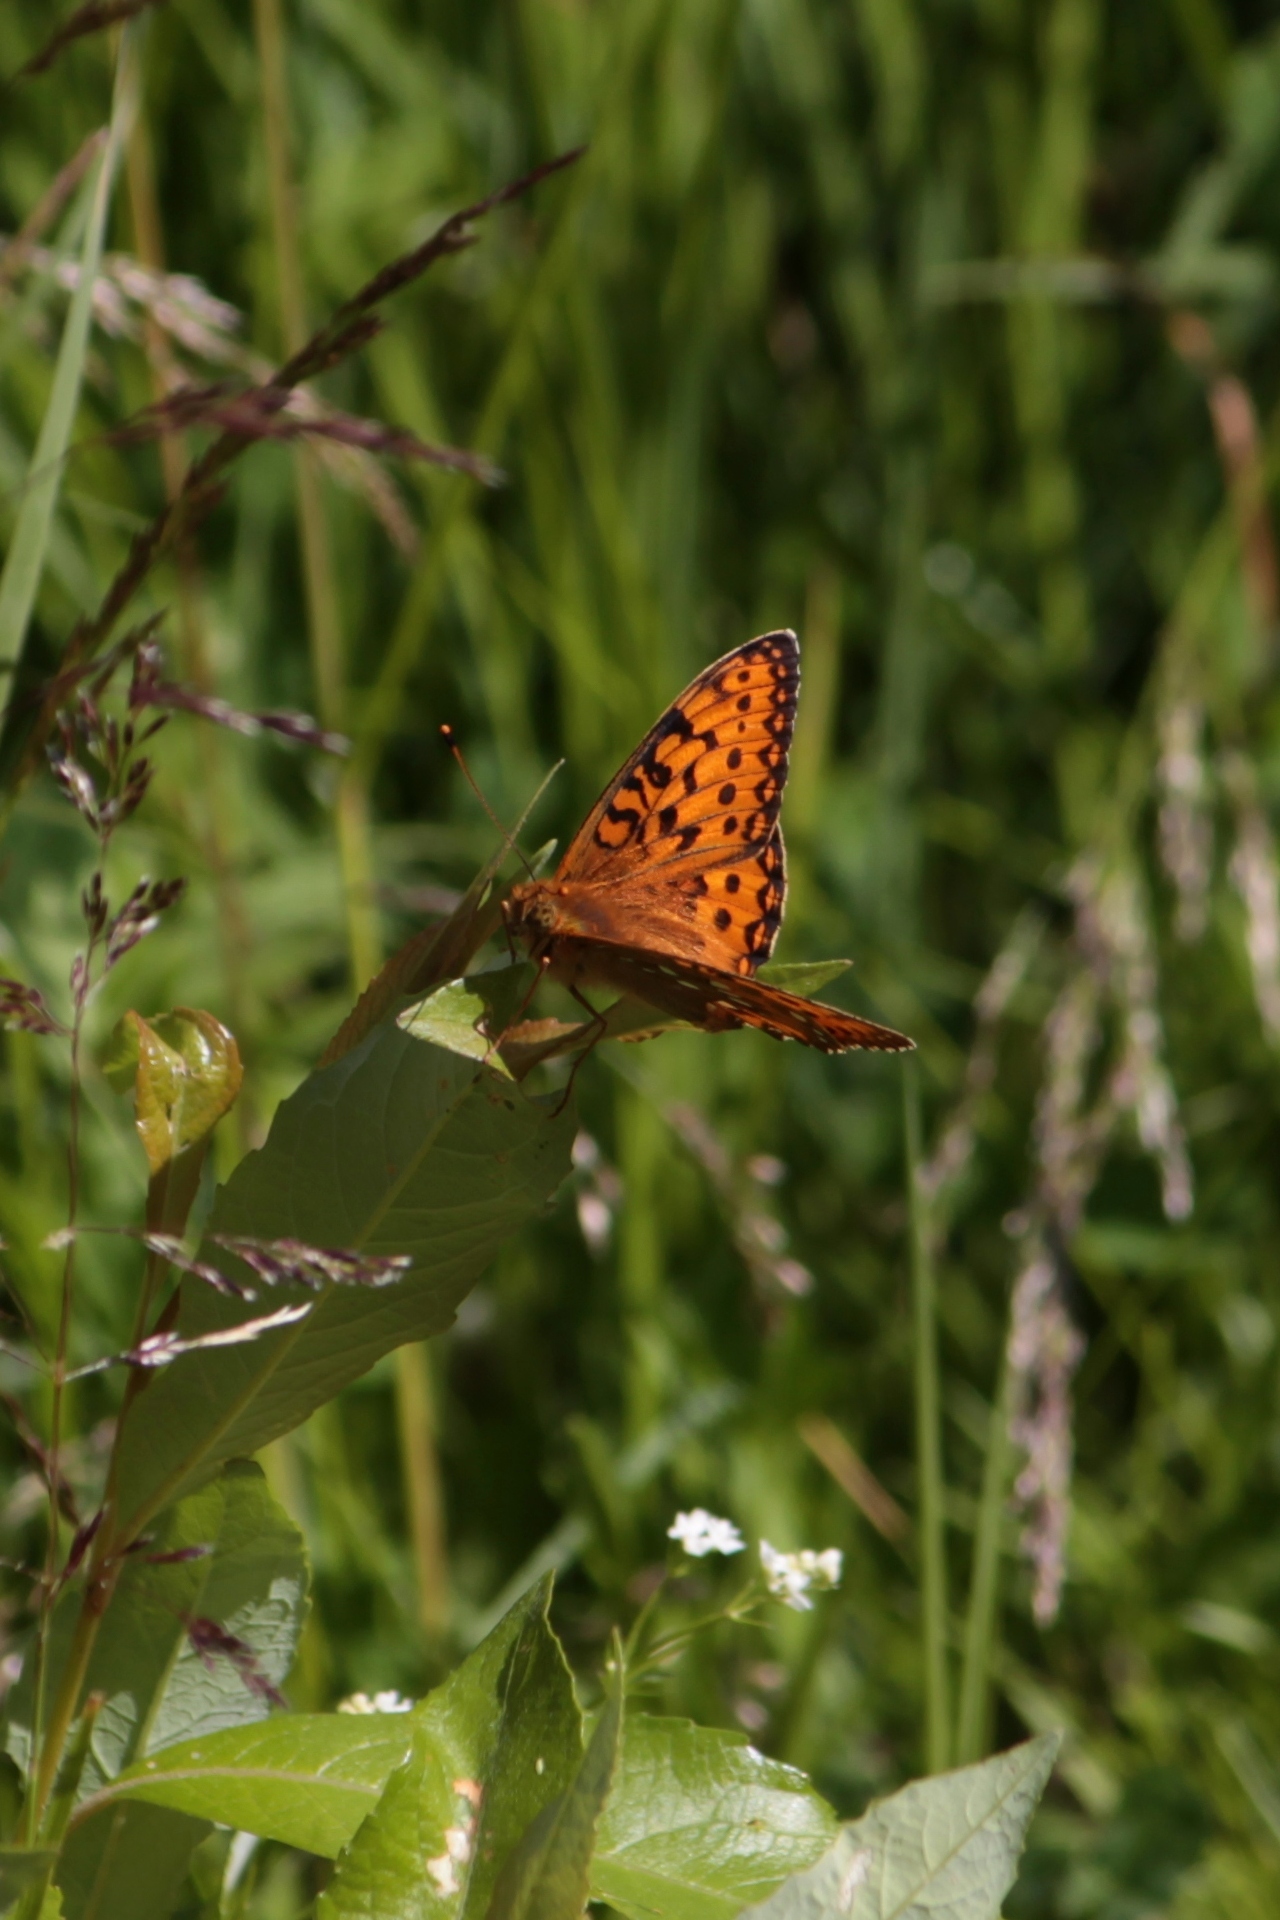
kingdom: Animalia
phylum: Arthropoda
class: Insecta
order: Lepidoptera
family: Nymphalidae
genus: Speyeria
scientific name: Speyeria aglaja
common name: Dark green fritillary
